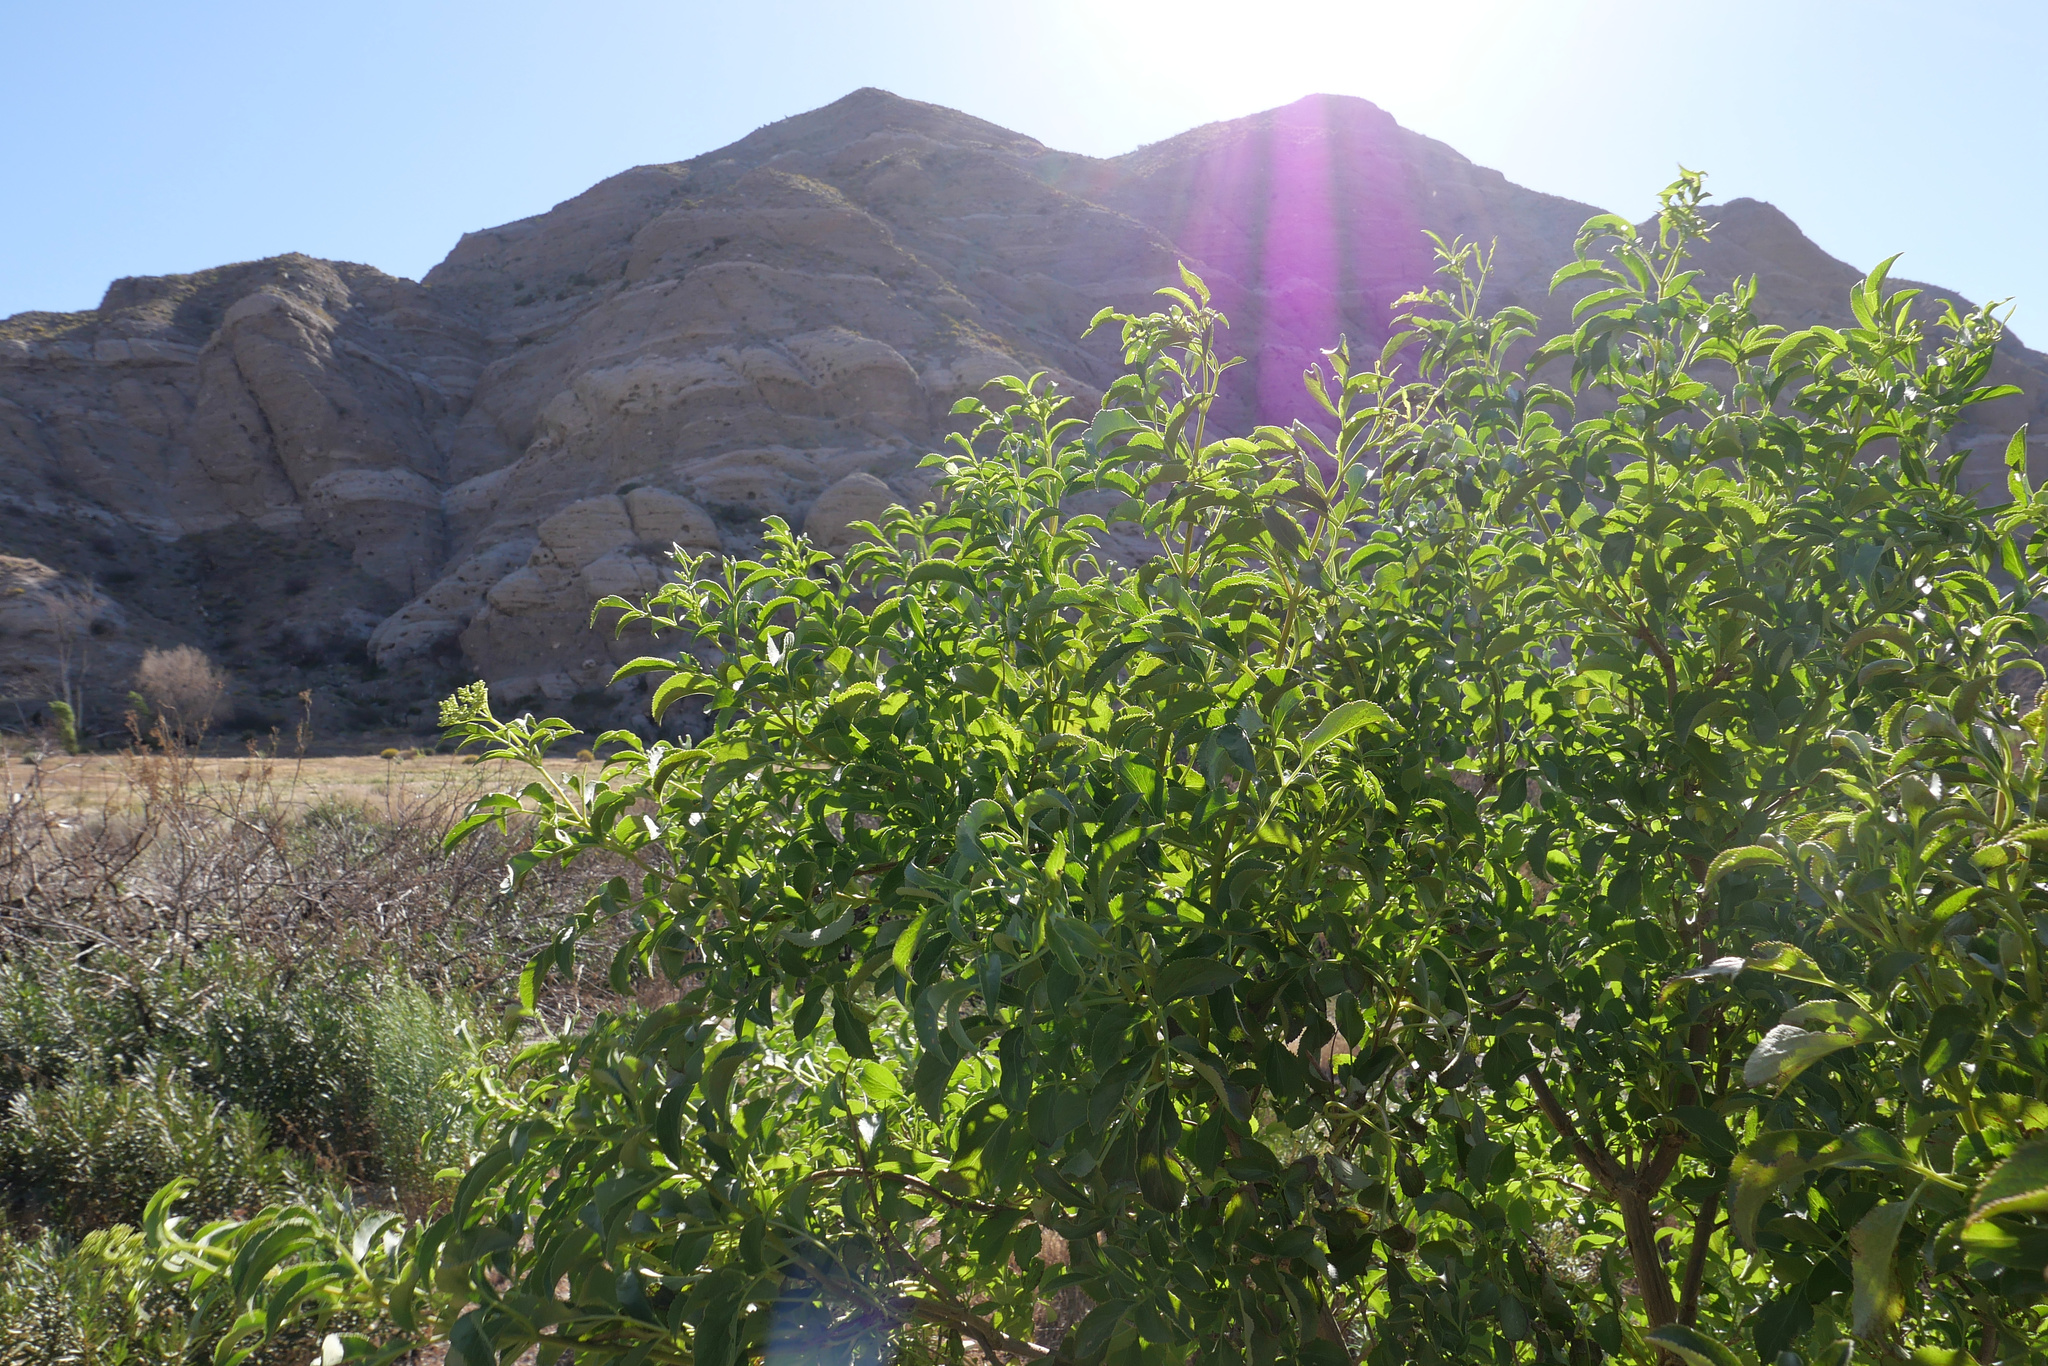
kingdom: Plantae
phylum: Tracheophyta
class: Magnoliopsida
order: Dipsacales
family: Viburnaceae
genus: Sambucus
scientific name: Sambucus cerulea
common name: Blue elder
